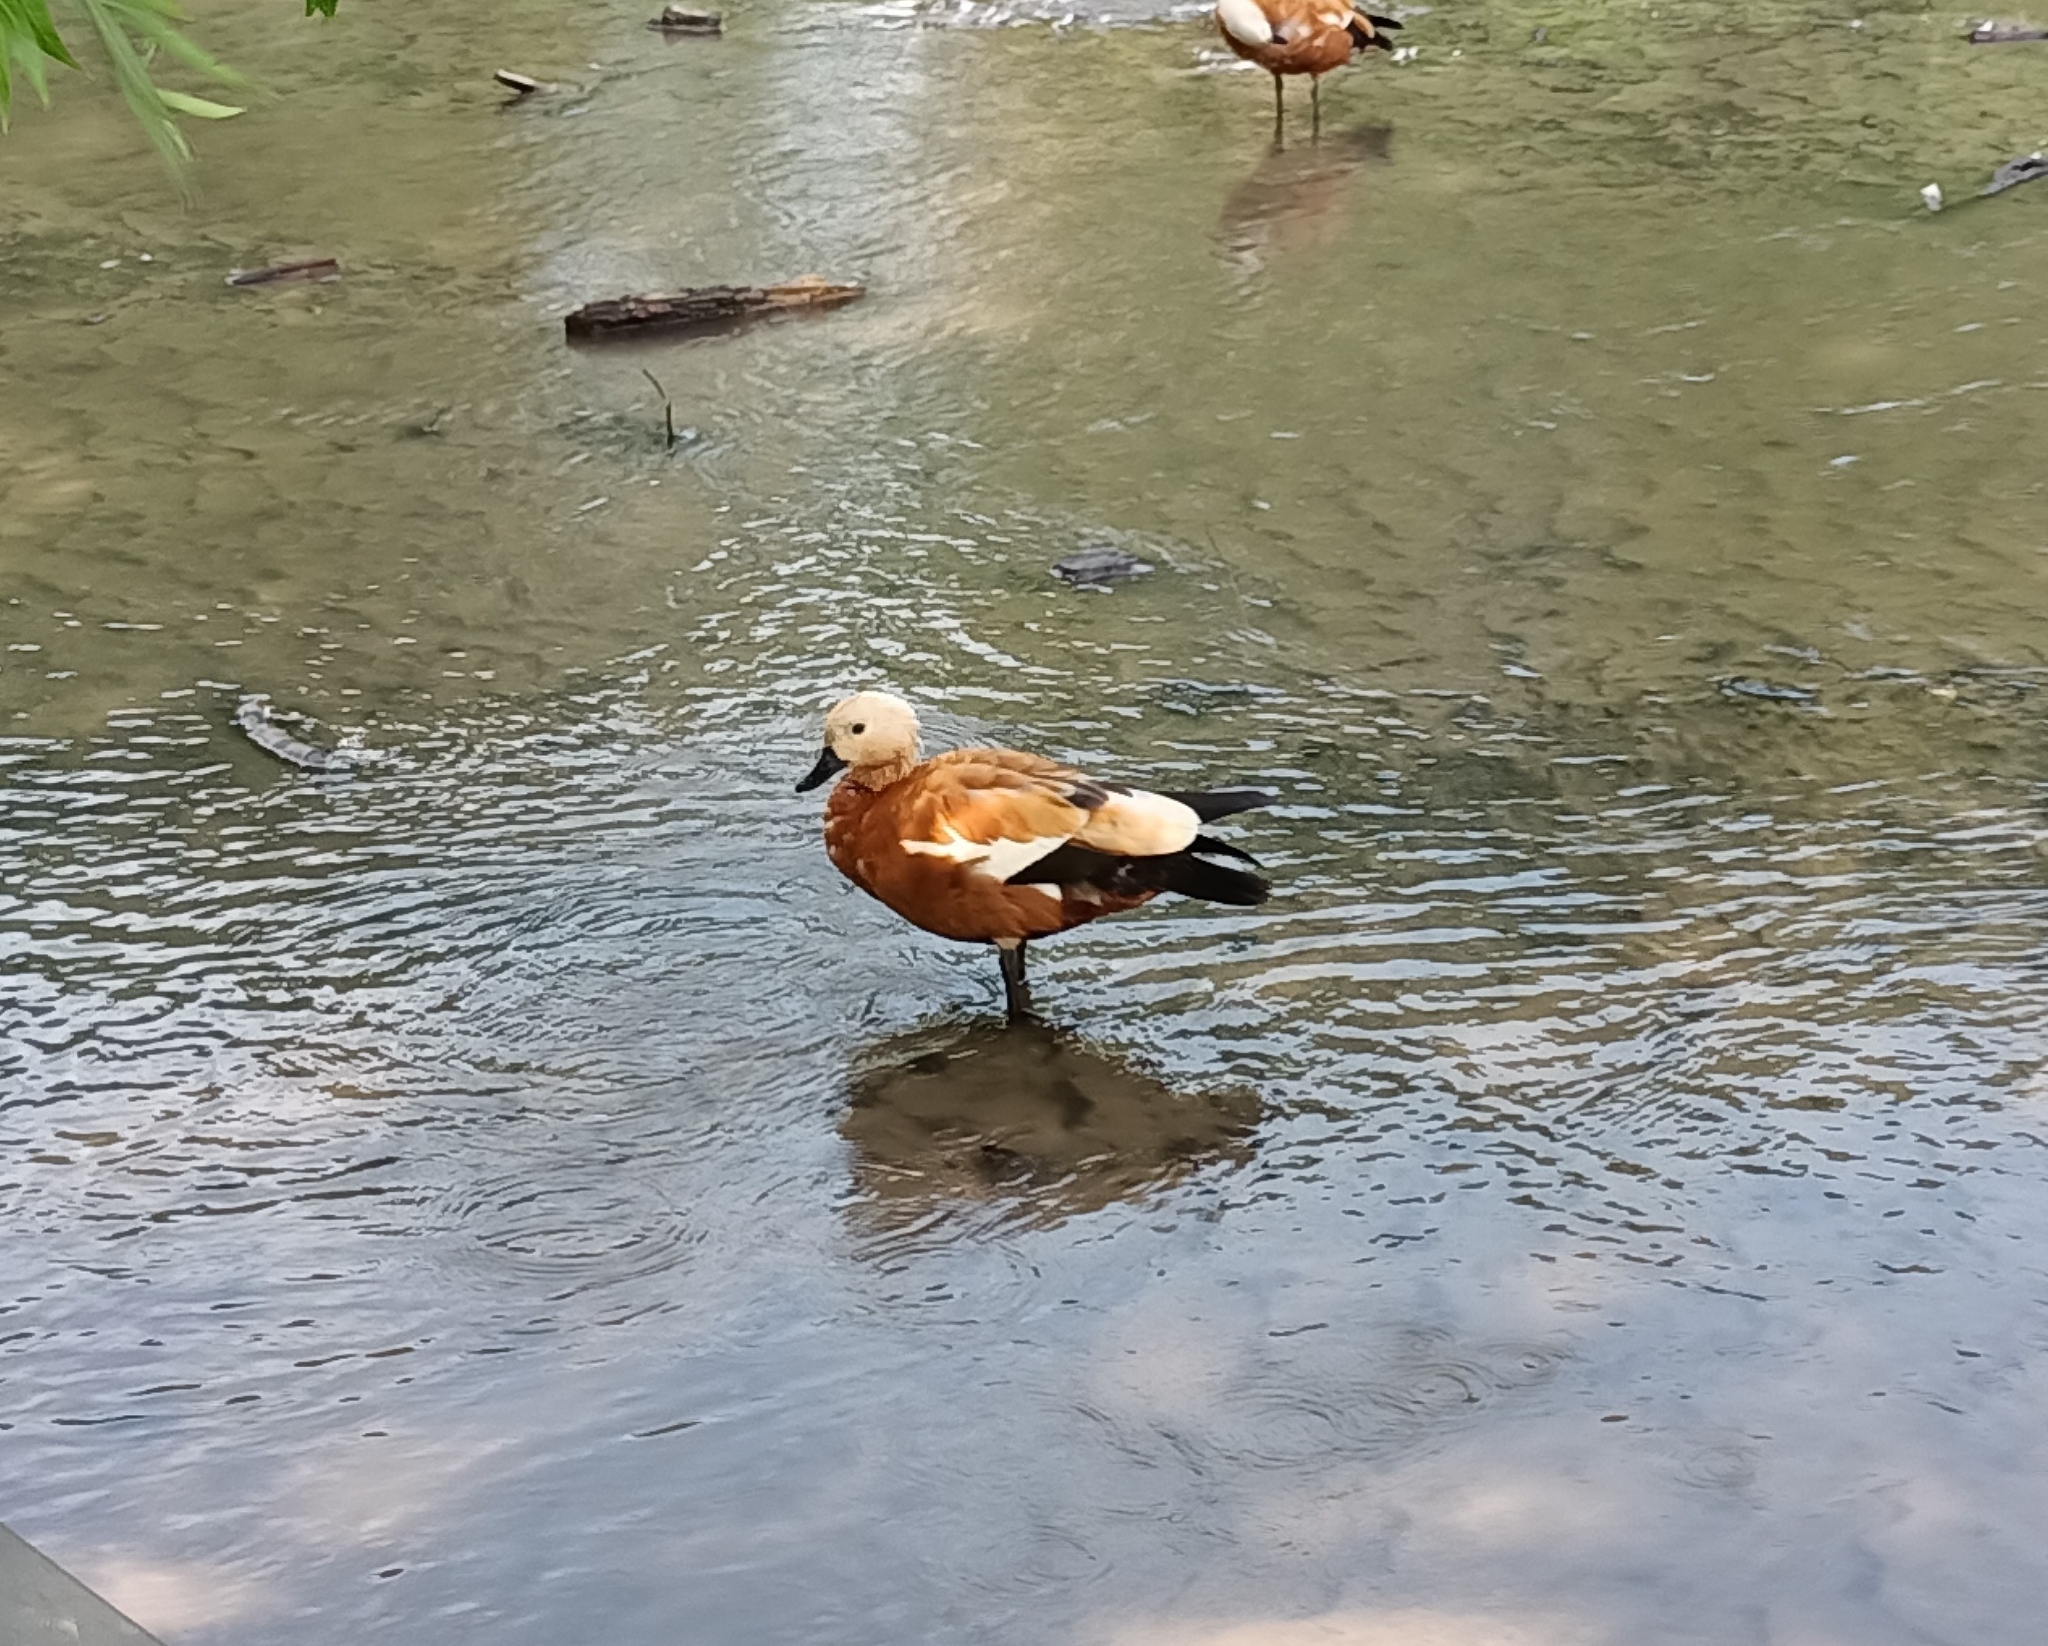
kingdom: Animalia
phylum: Chordata
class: Aves
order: Anseriformes
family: Anatidae
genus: Tadorna
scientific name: Tadorna ferruginea
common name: Ruddy shelduck
